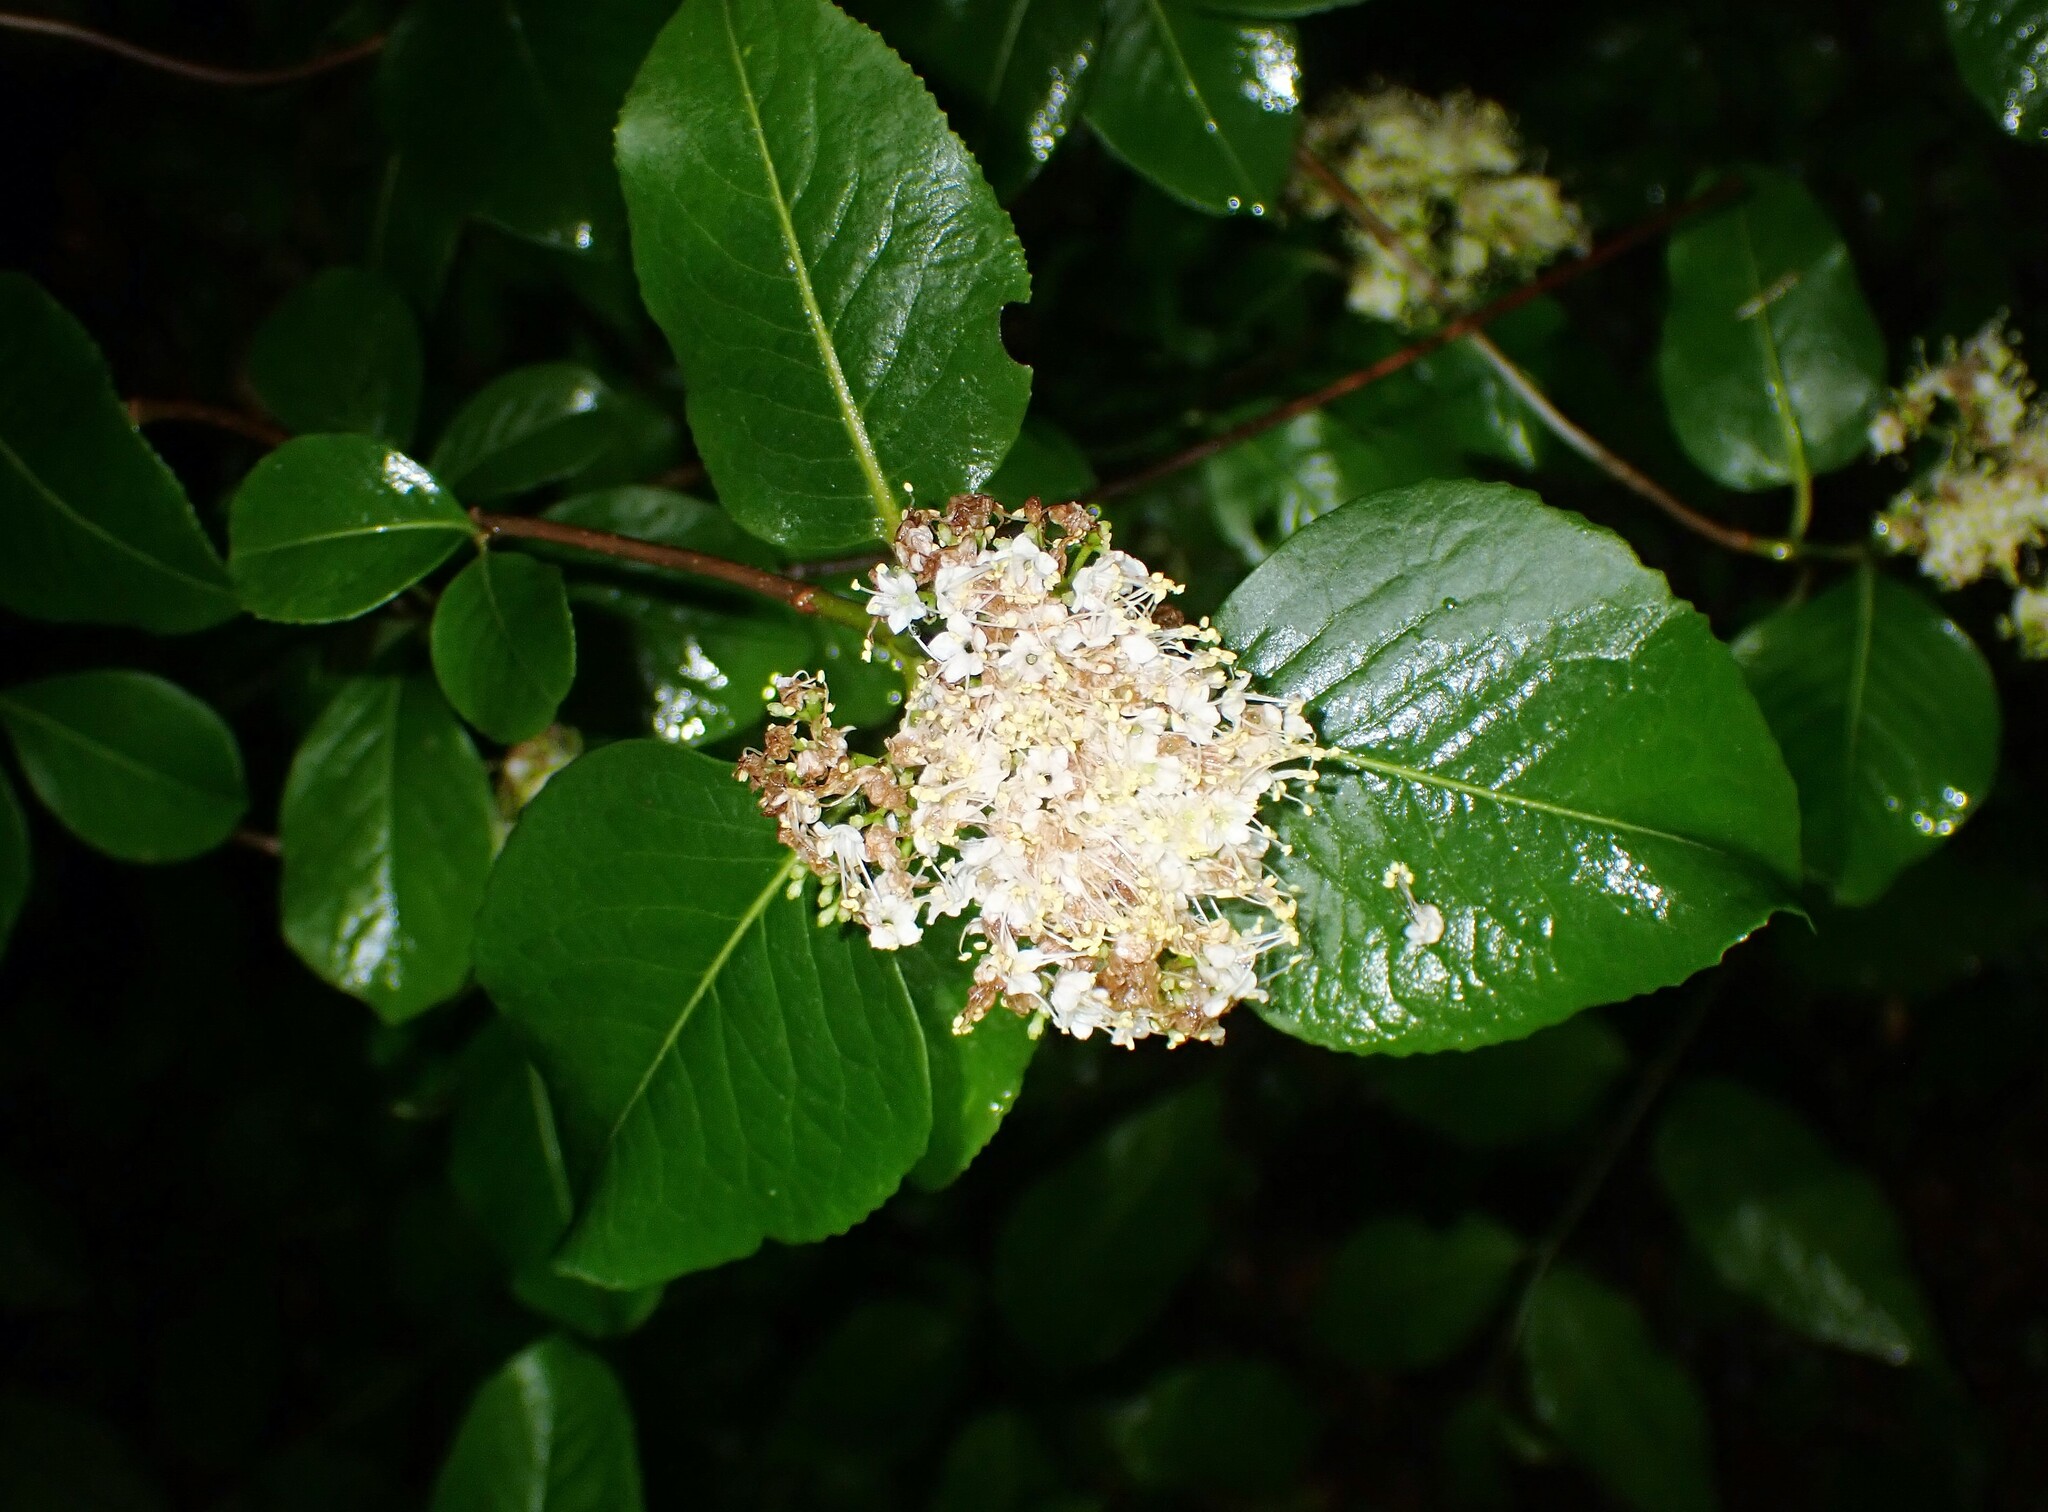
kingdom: Plantae
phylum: Tracheophyta
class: Magnoliopsida
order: Dipsacales
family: Viburnaceae
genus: Viburnum
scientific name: Viburnum cassinoides
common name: Swamp haw
